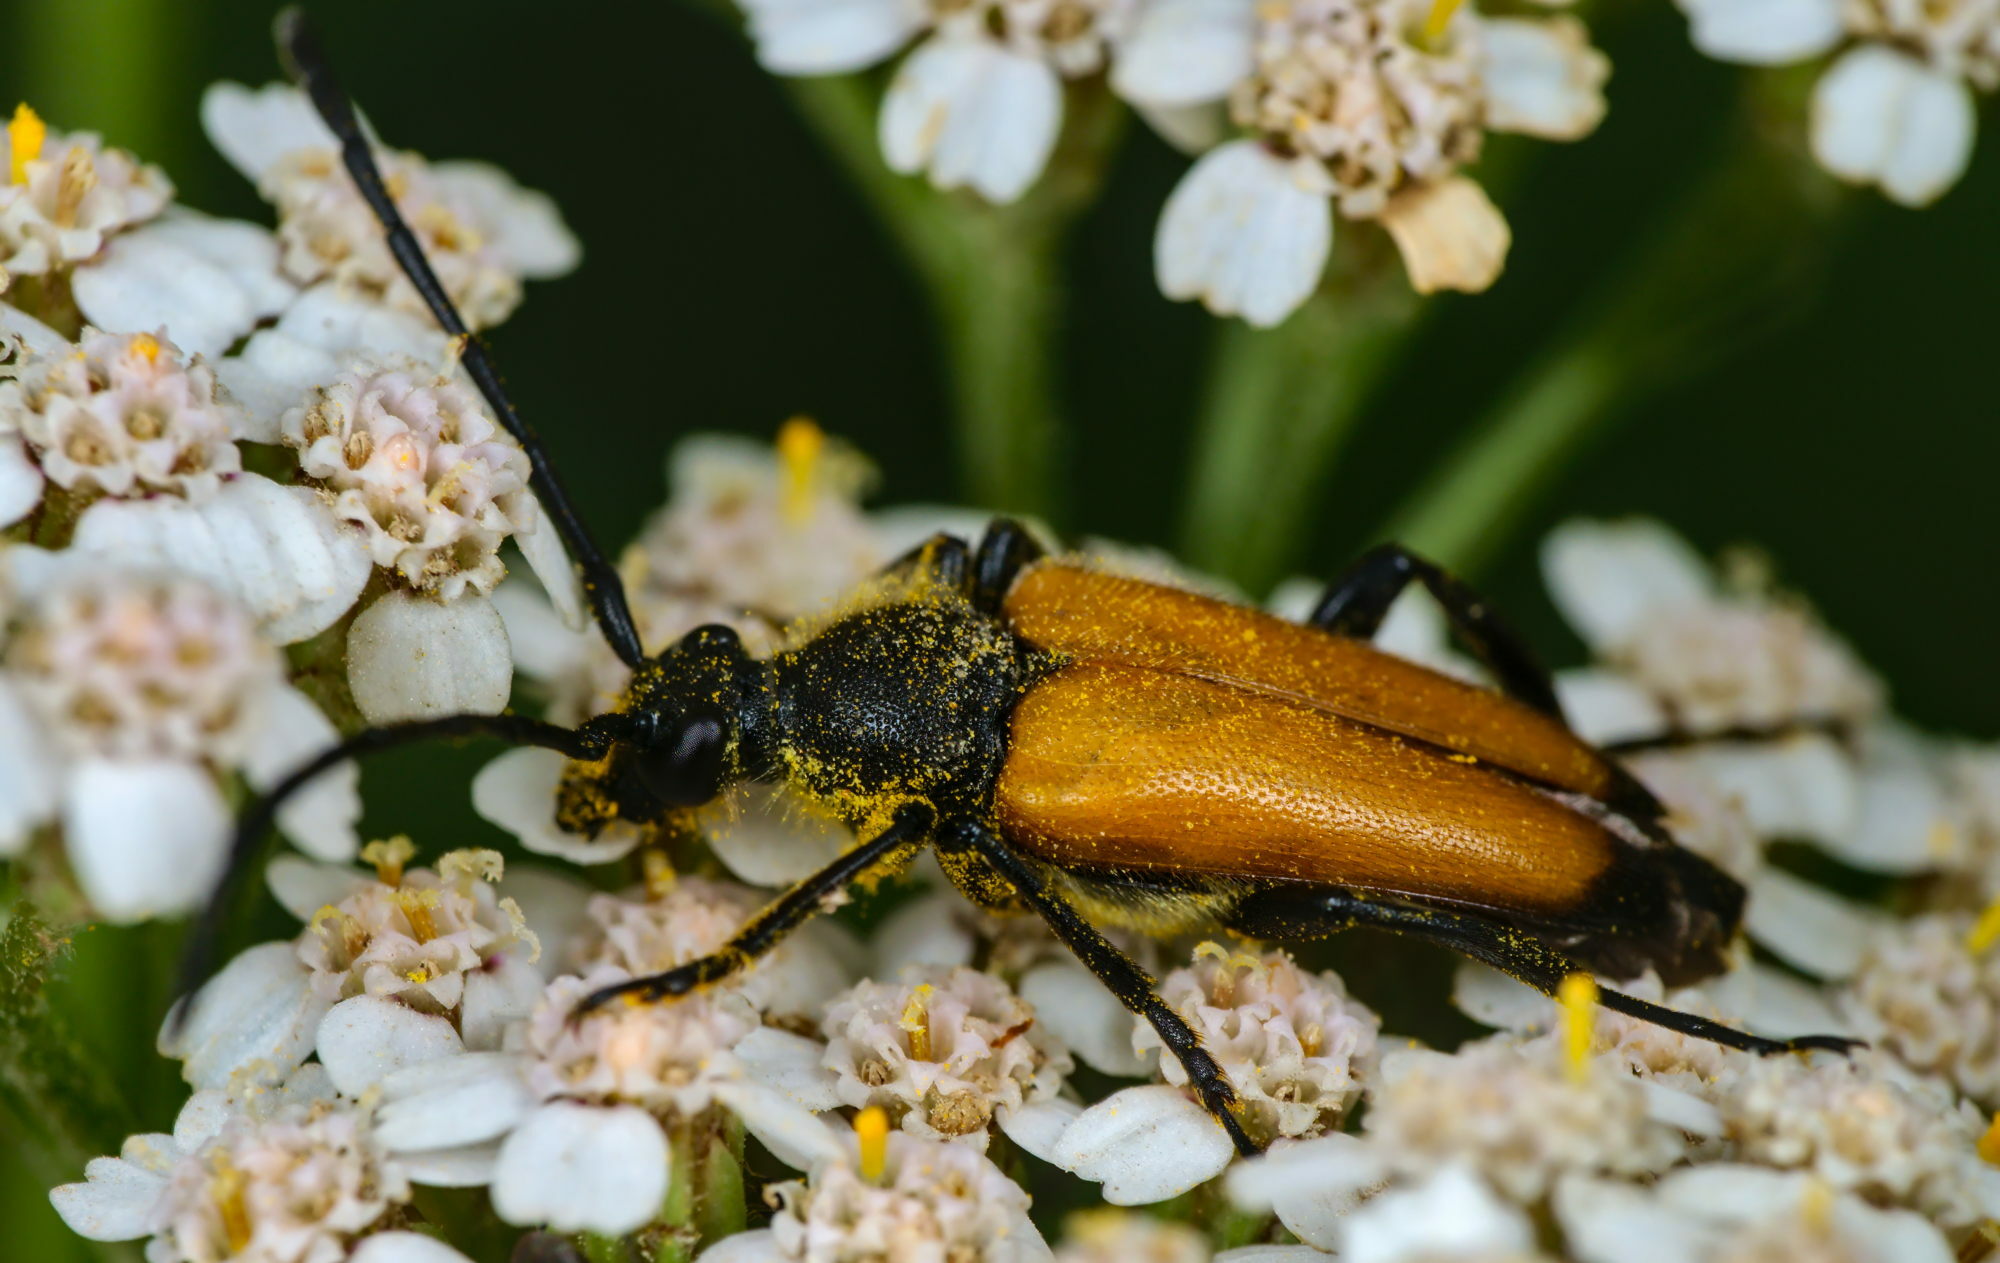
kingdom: Animalia
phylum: Arthropoda
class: Insecta
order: Coleoptera
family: Cerambycidae
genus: Paracorymbia
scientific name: Paracorymbia fulva
